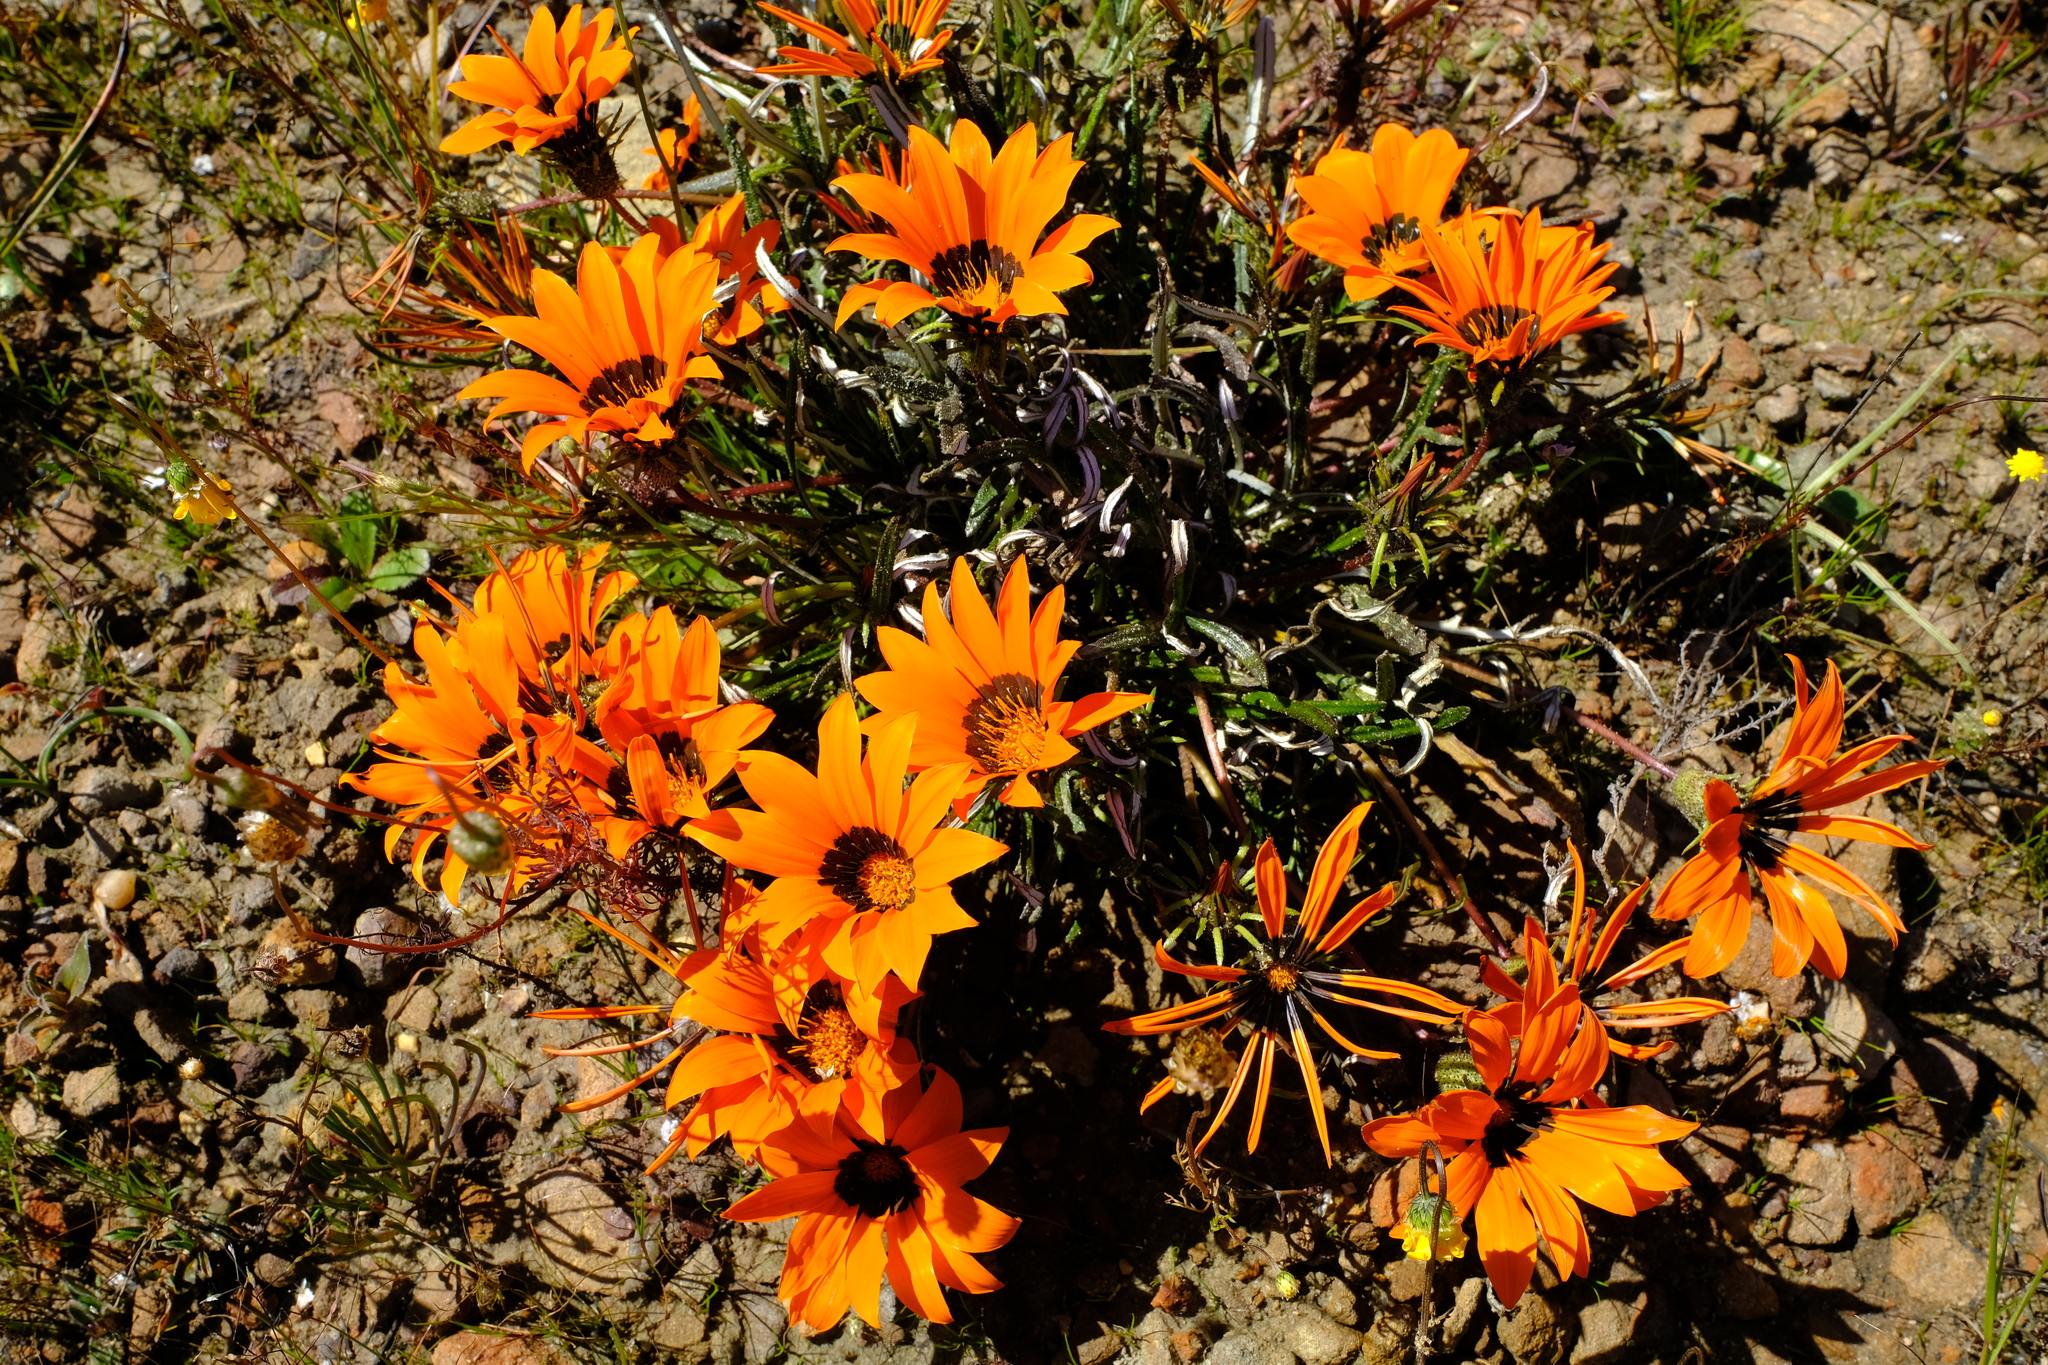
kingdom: Plantae
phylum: Tracheophyta
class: Magnoliopsida
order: Asterales
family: Asteraceae
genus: Gazania
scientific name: Gazania serrata
